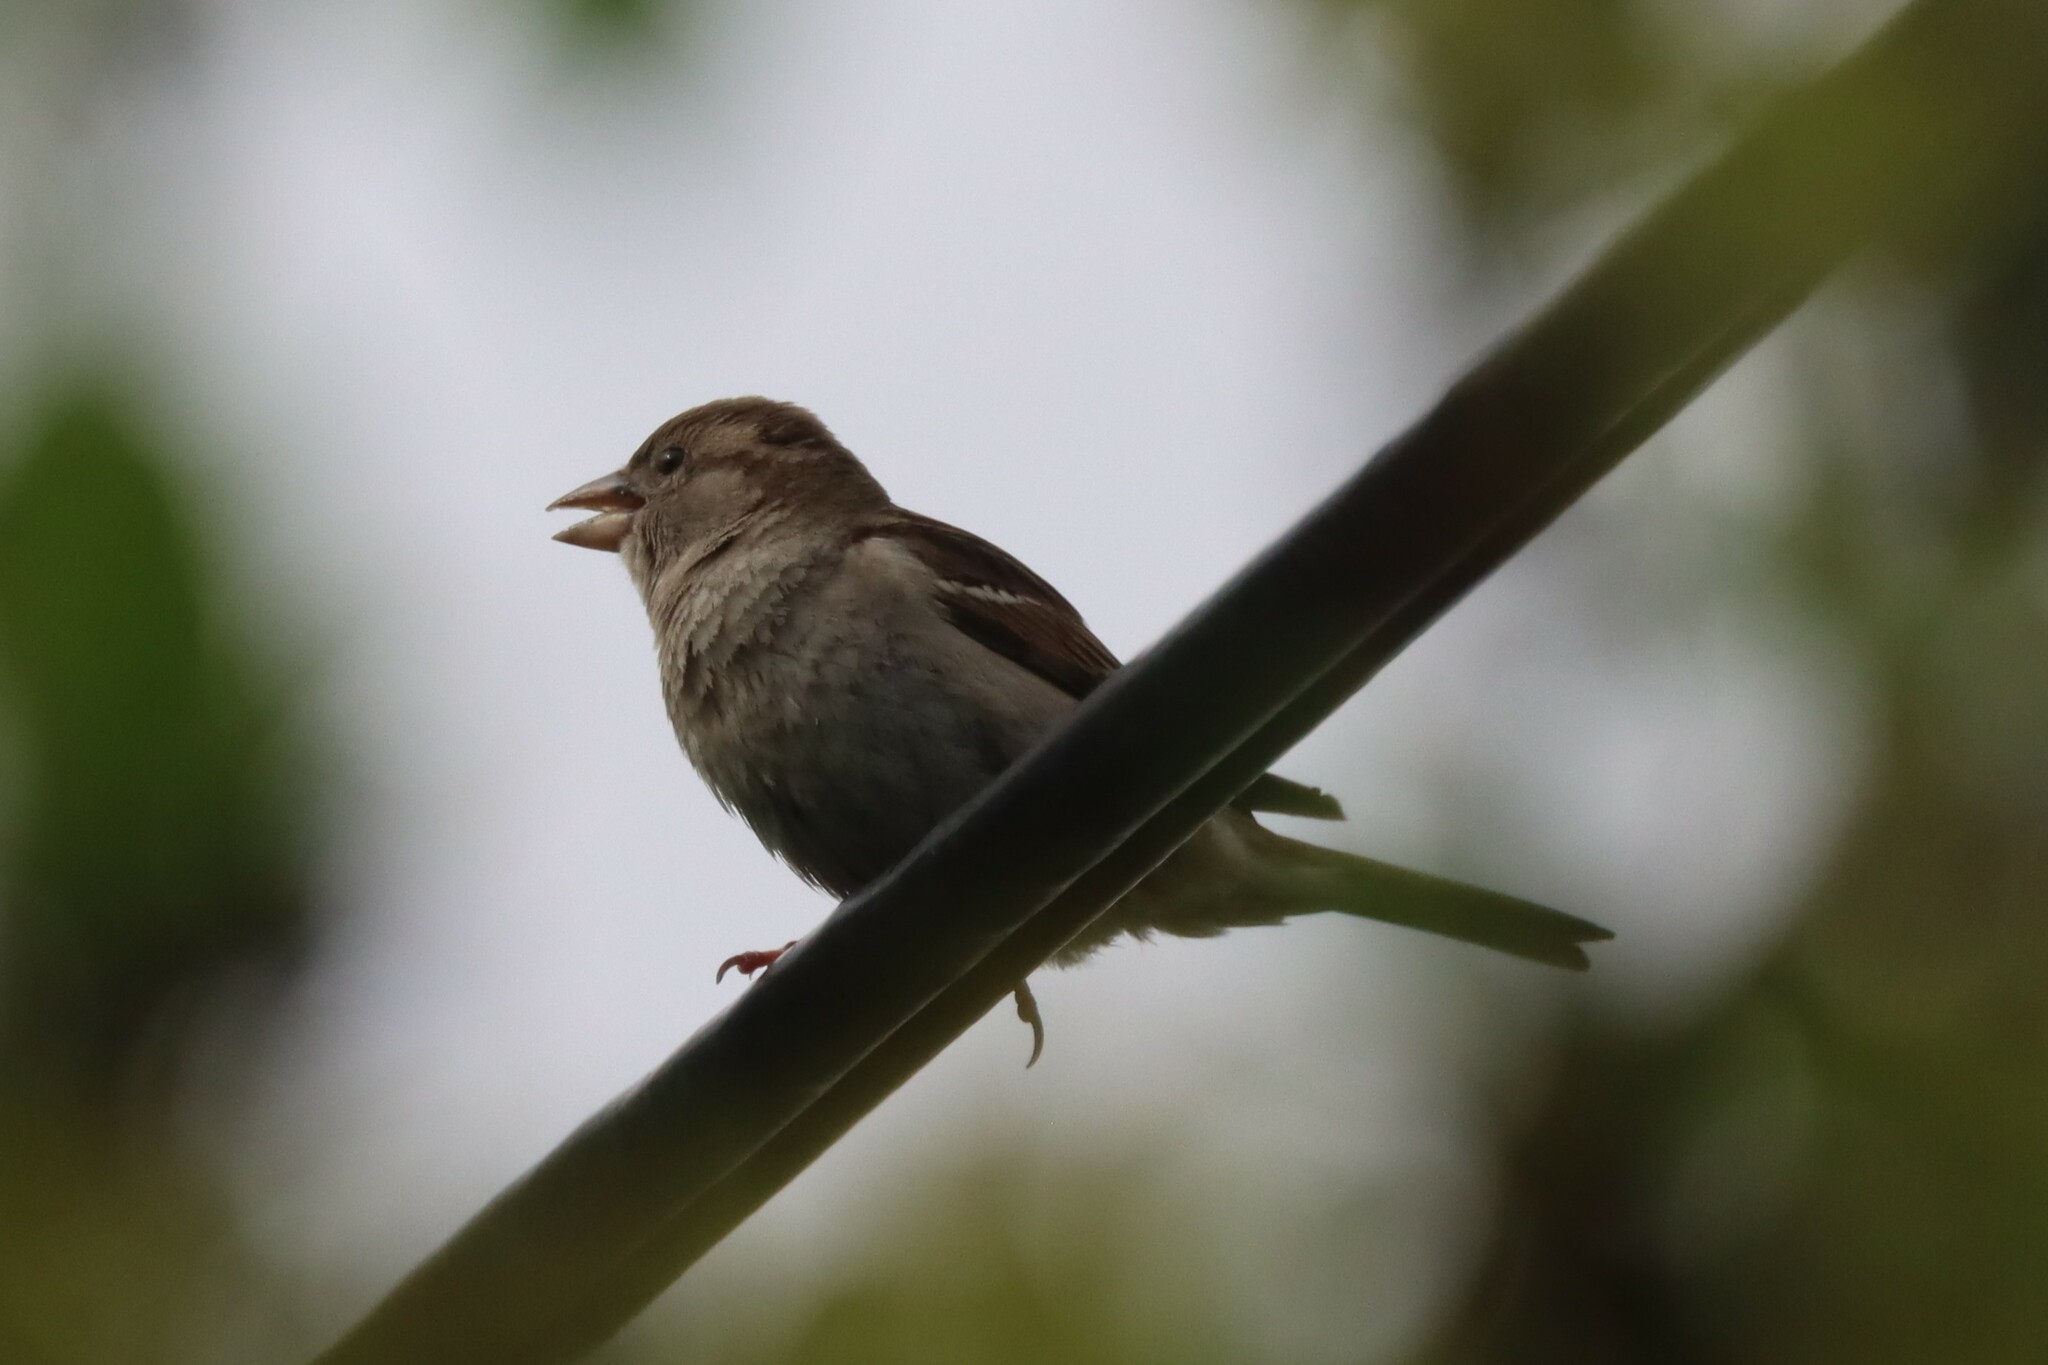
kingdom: Animalia
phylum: Chordata
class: Aves
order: Passeriformes
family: Passeridae
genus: Passer
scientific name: Passer domesticus
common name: House sparrow
